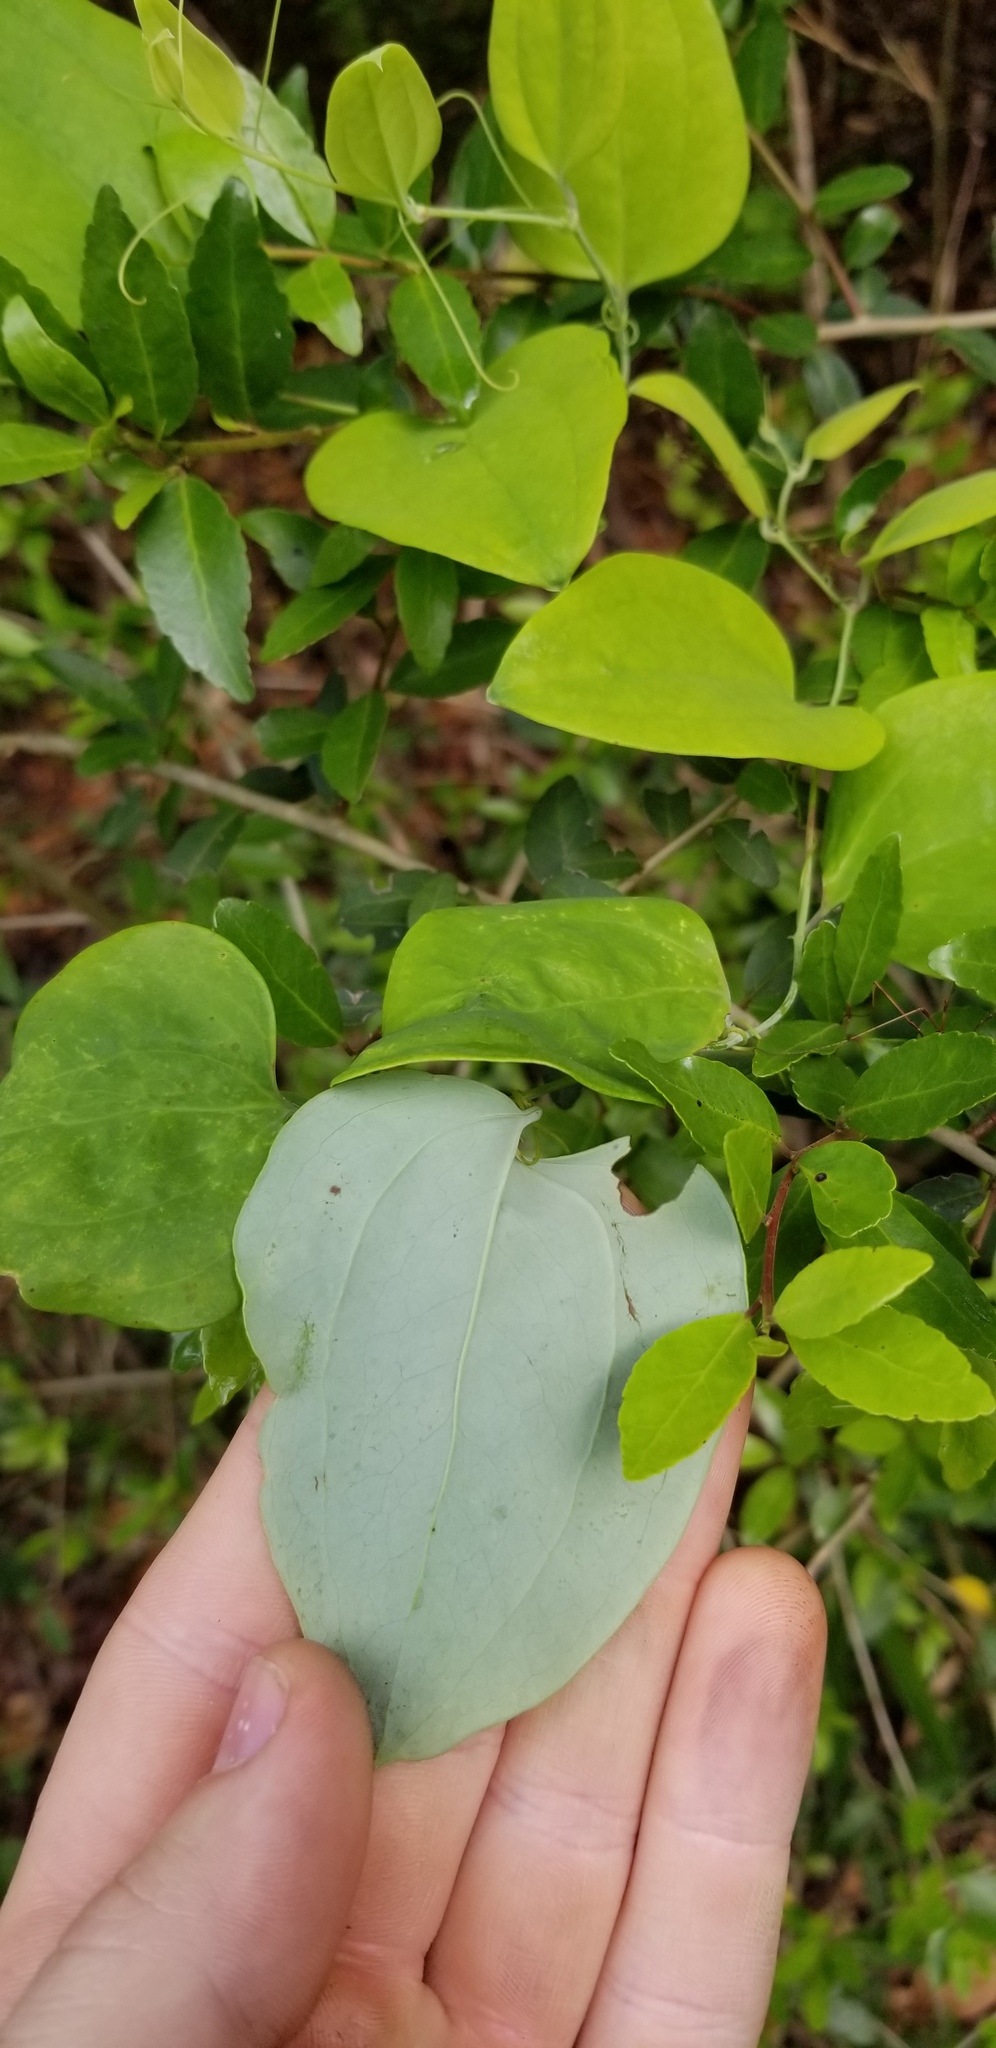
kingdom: Plantae
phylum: Tracheophyta
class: Liliopsida
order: Liliales
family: Smilacaceae
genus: Smilax
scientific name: Smilax glauca
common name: Cat greenbrier
